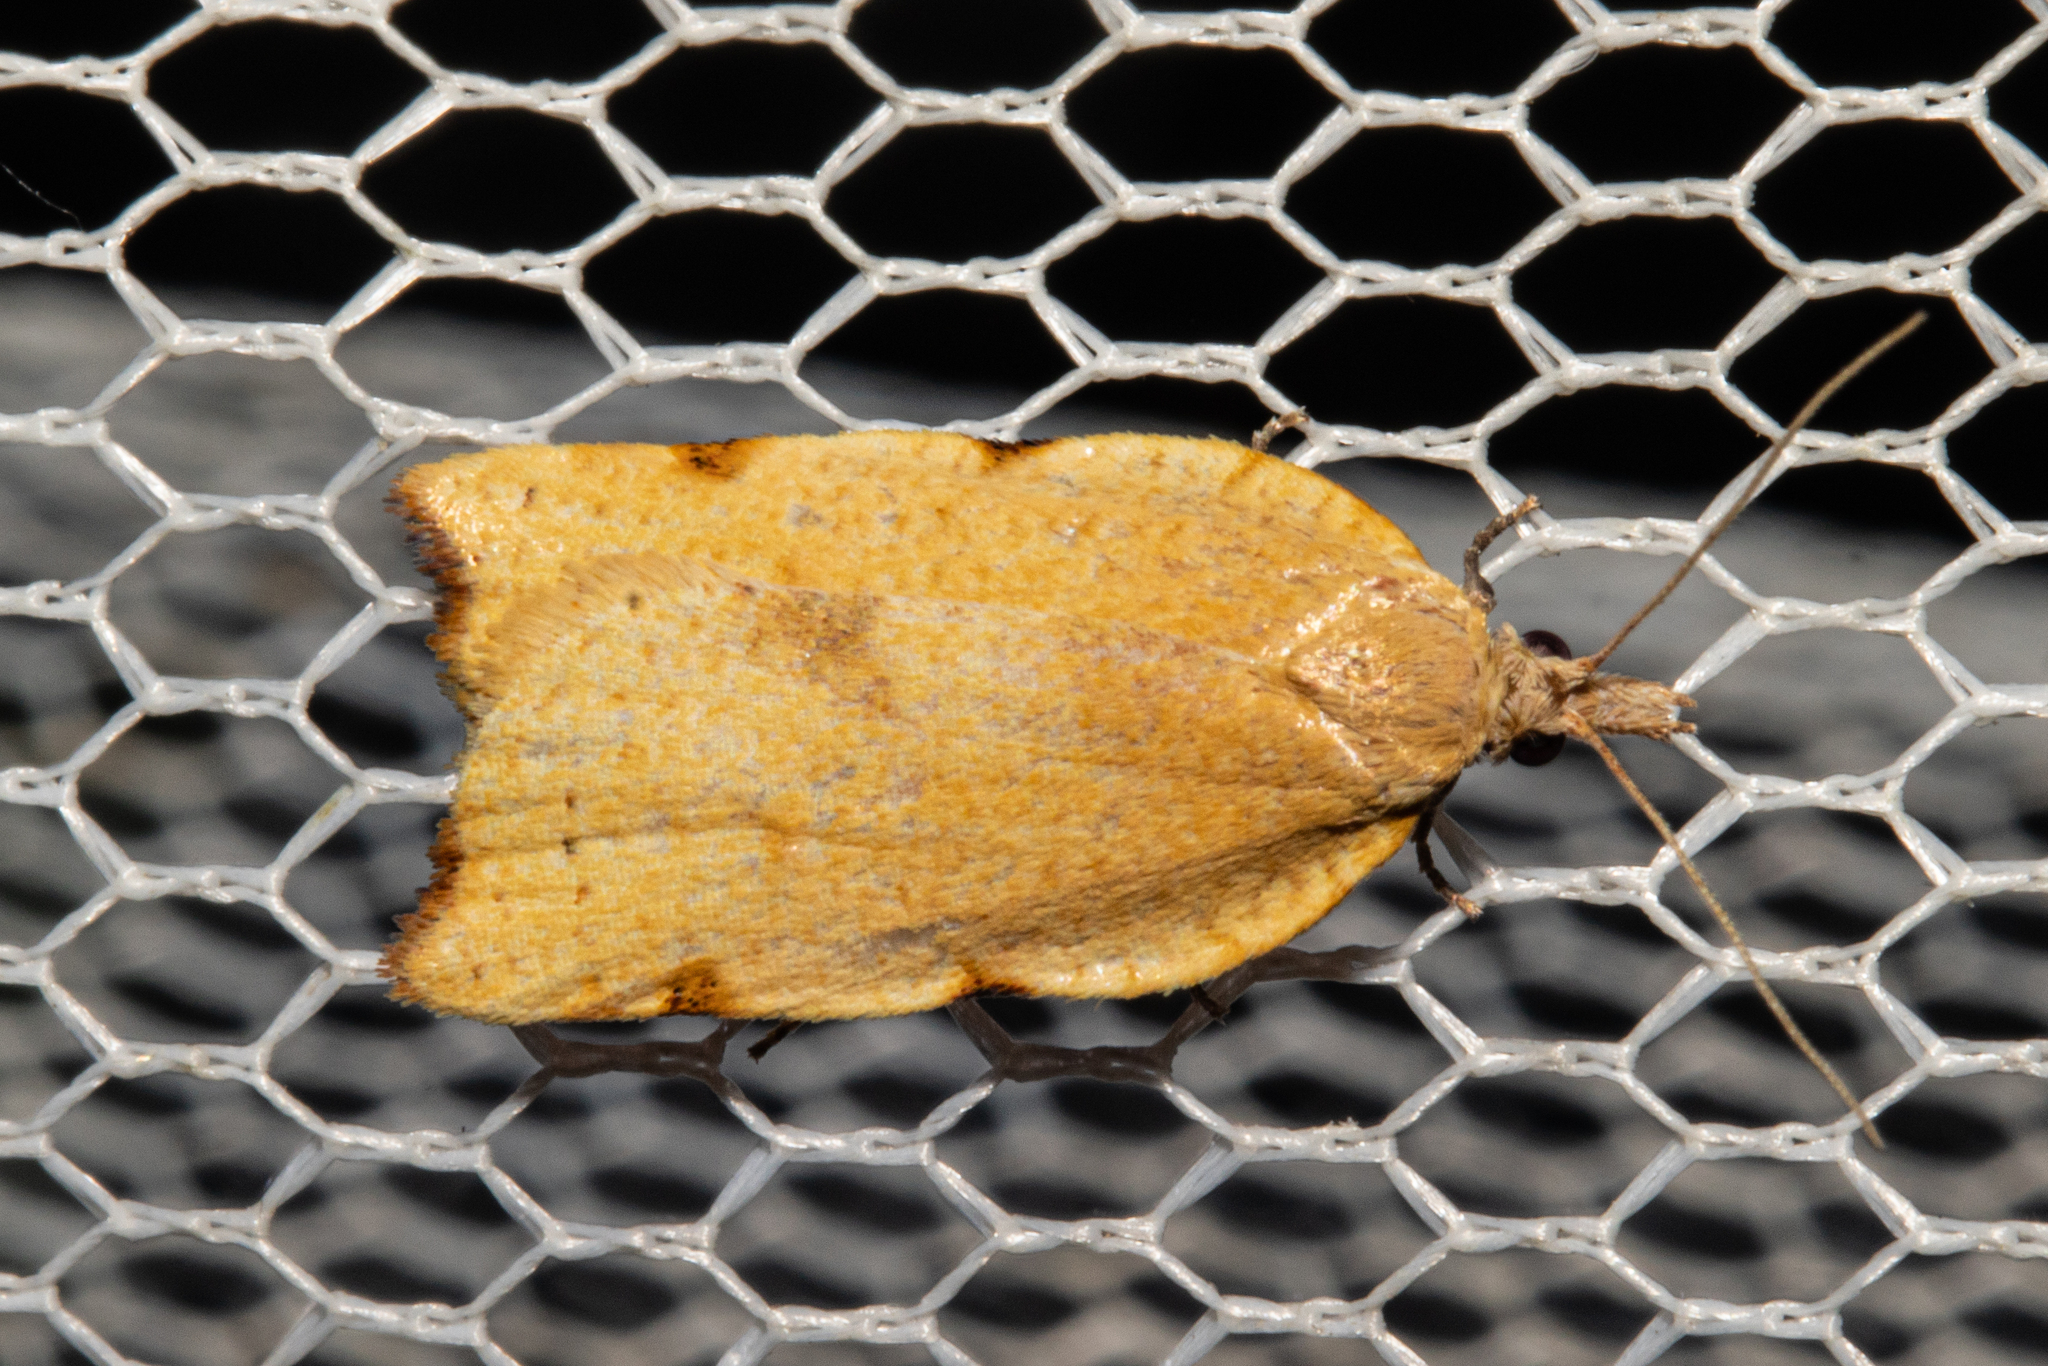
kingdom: Animalia
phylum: Arthropoda
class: Insecta
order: Lepidoptera
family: Tortricidae
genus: Apoctena
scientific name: Apoctena flavescens
